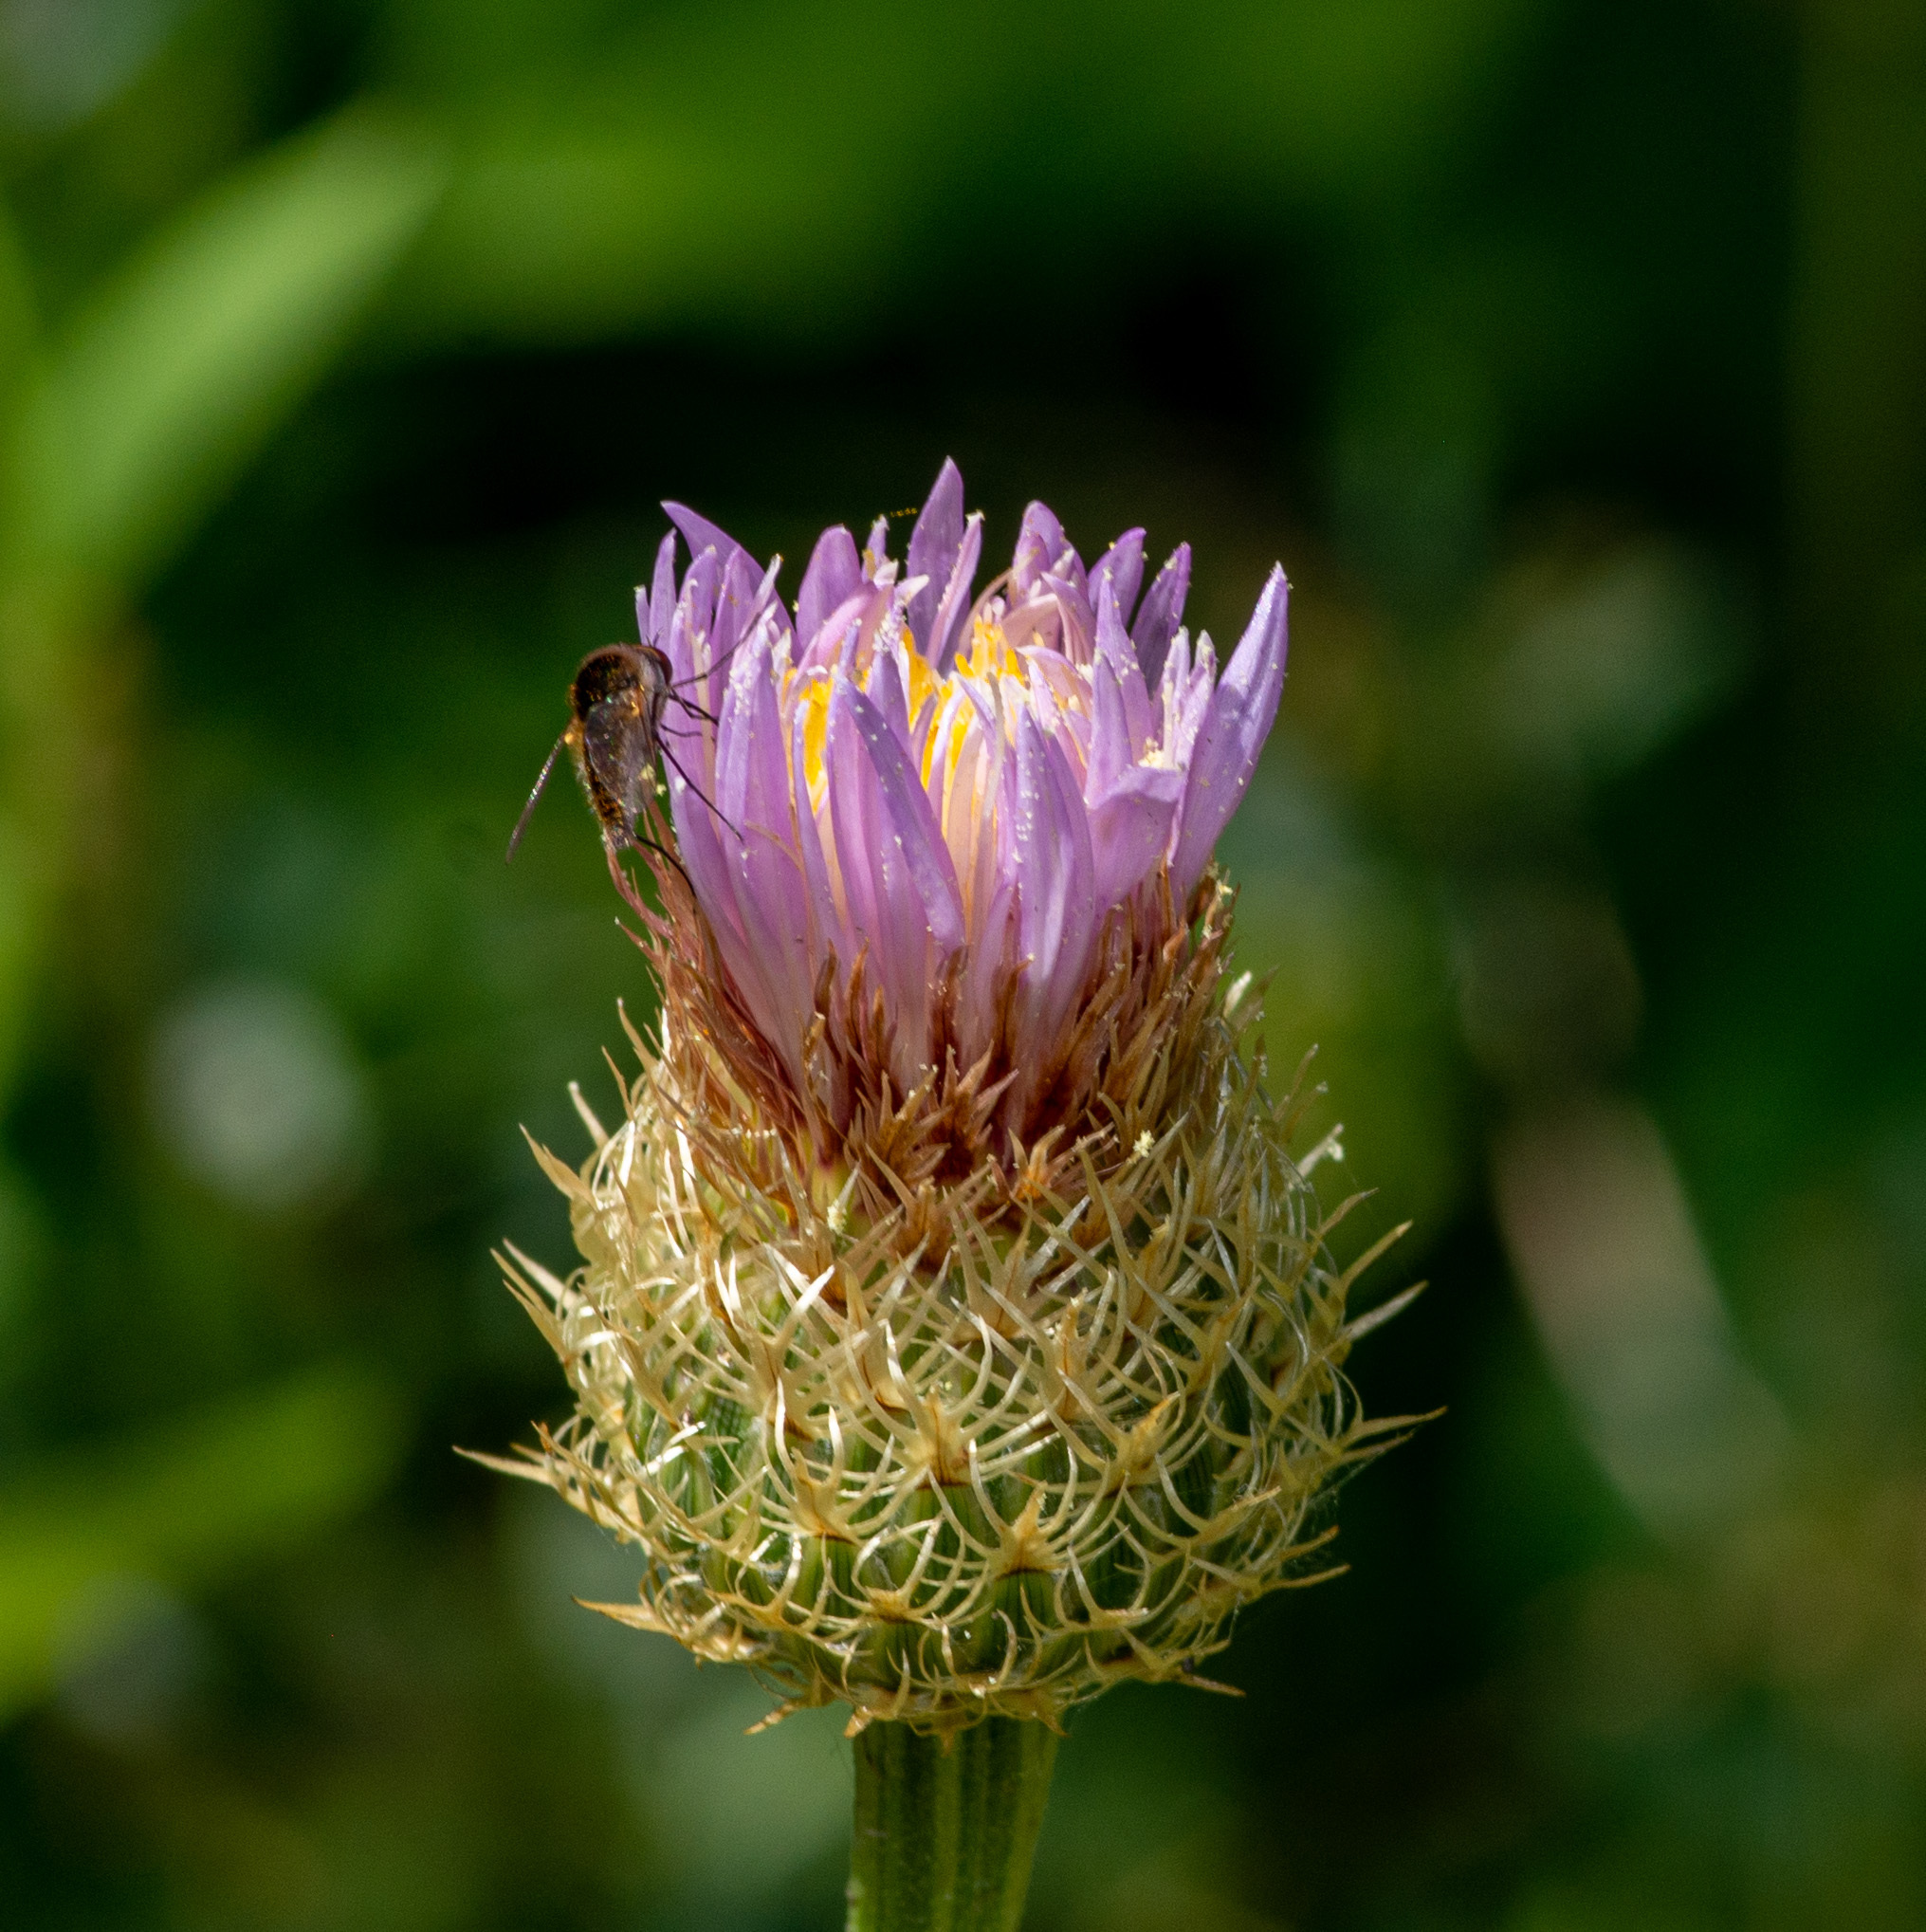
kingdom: Plantae
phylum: Tracheophyta
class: Magnoliopsida
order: Asterales
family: Asteraceae
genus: Plectocephalus
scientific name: Plectocephalus americanus
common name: American basket-flower
